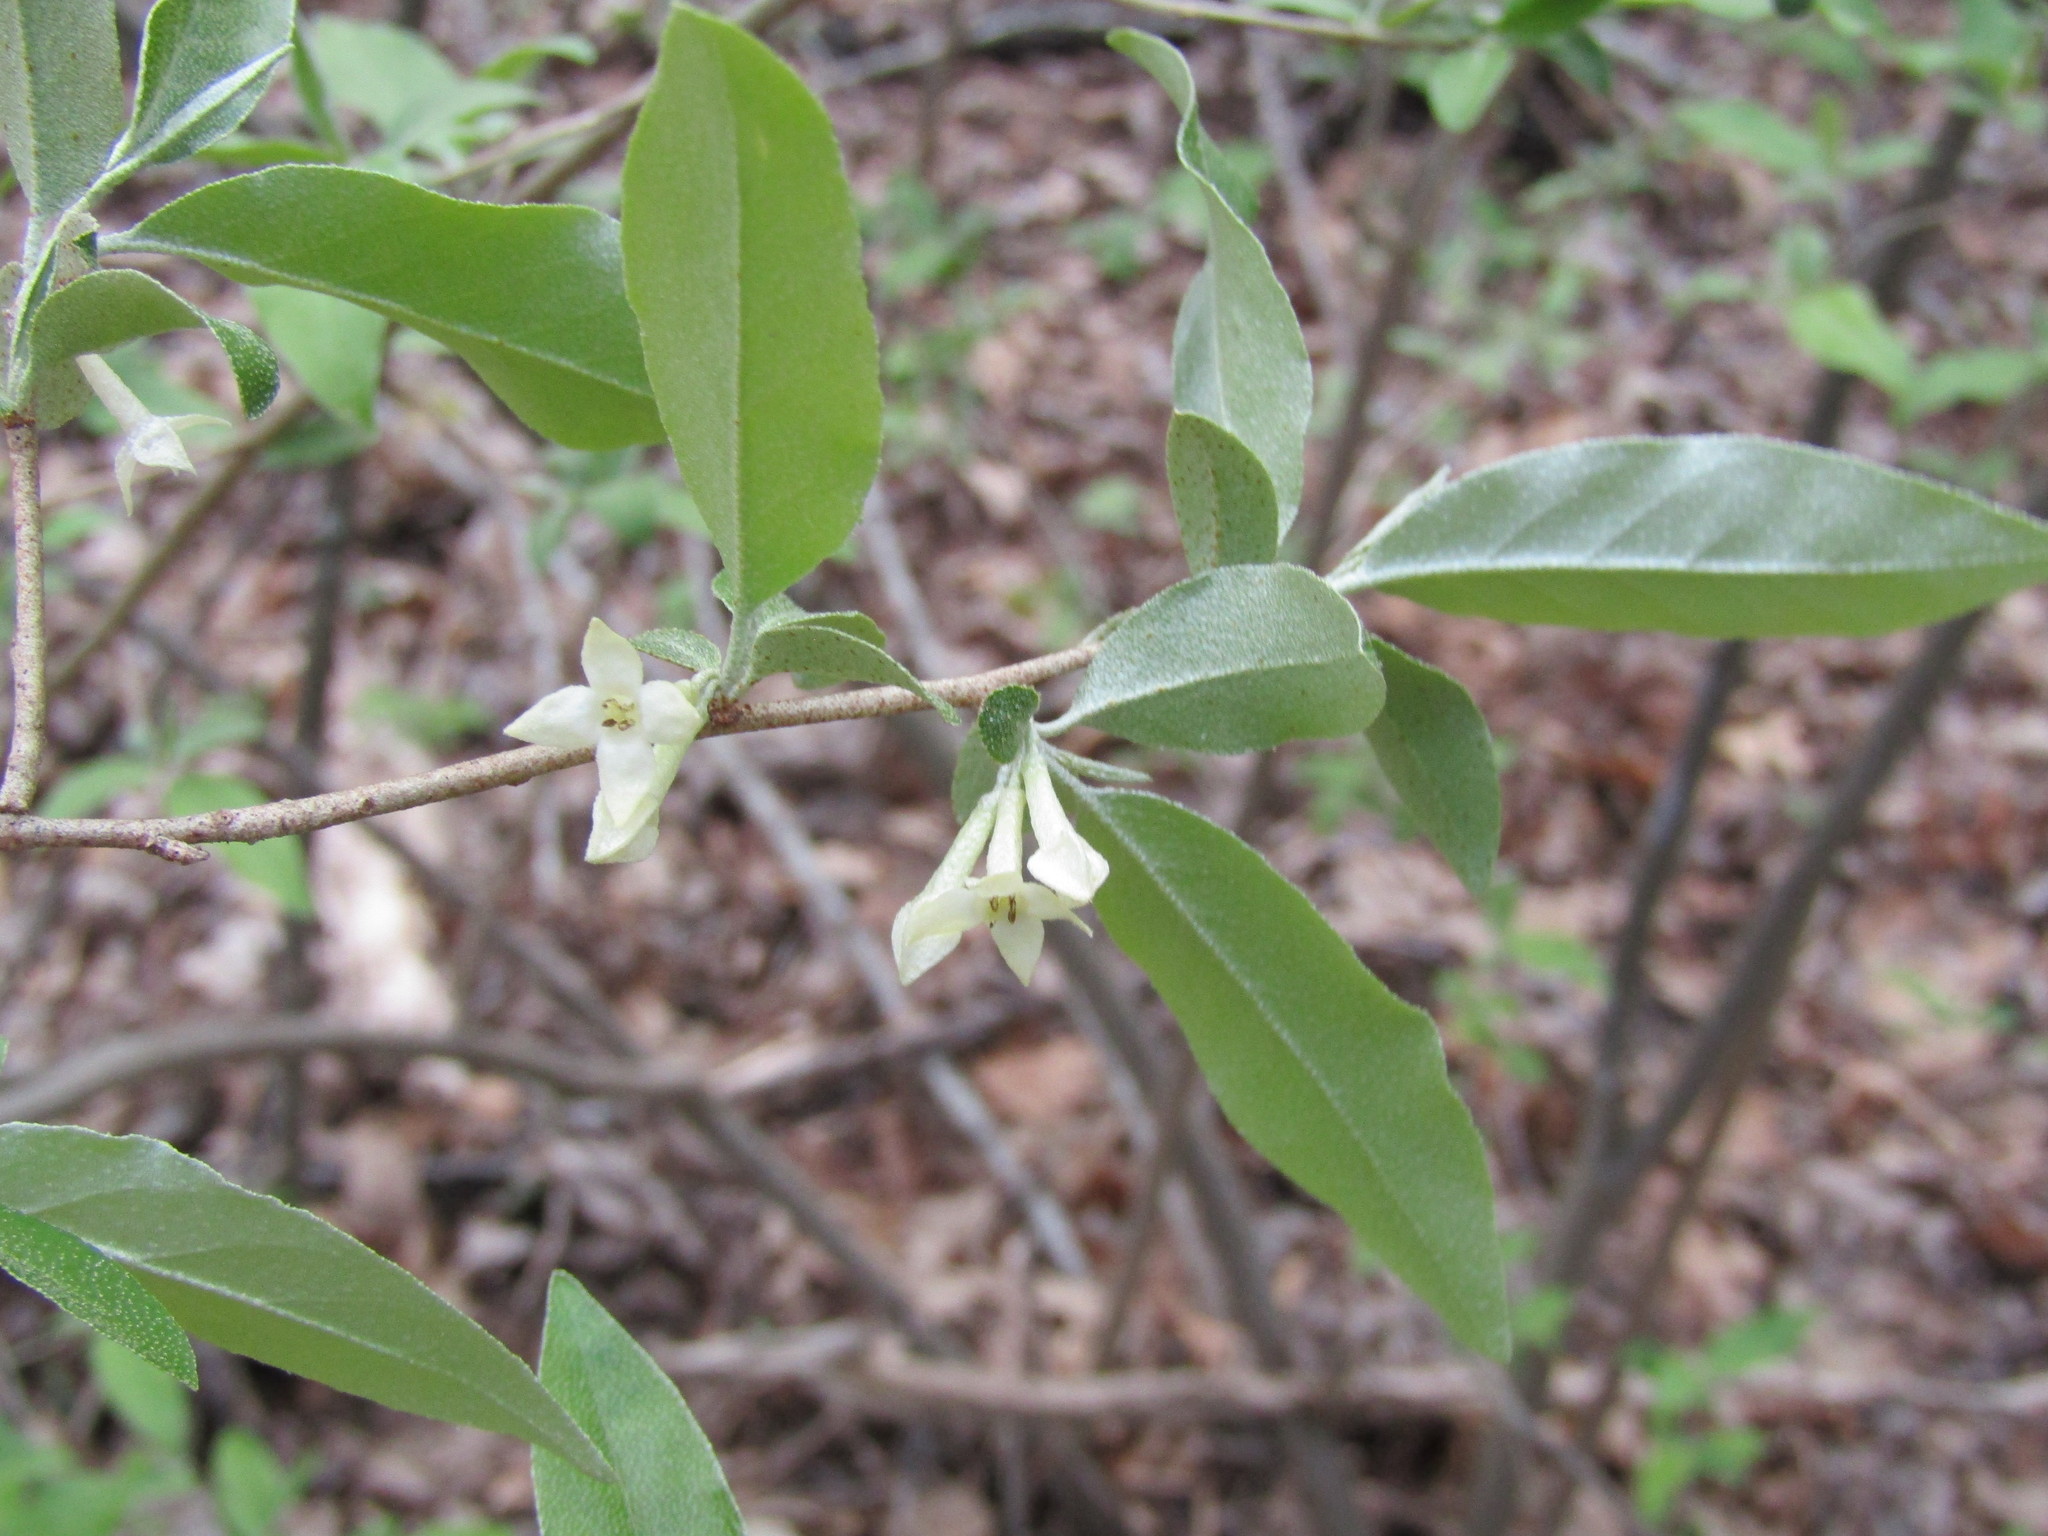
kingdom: Plantae
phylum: Tracheophyta
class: Magnoliopsida
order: Rosales
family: Elaeagnaceae
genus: Elaeagnus
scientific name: Elaeagnus umbellata
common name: Autumn olive
